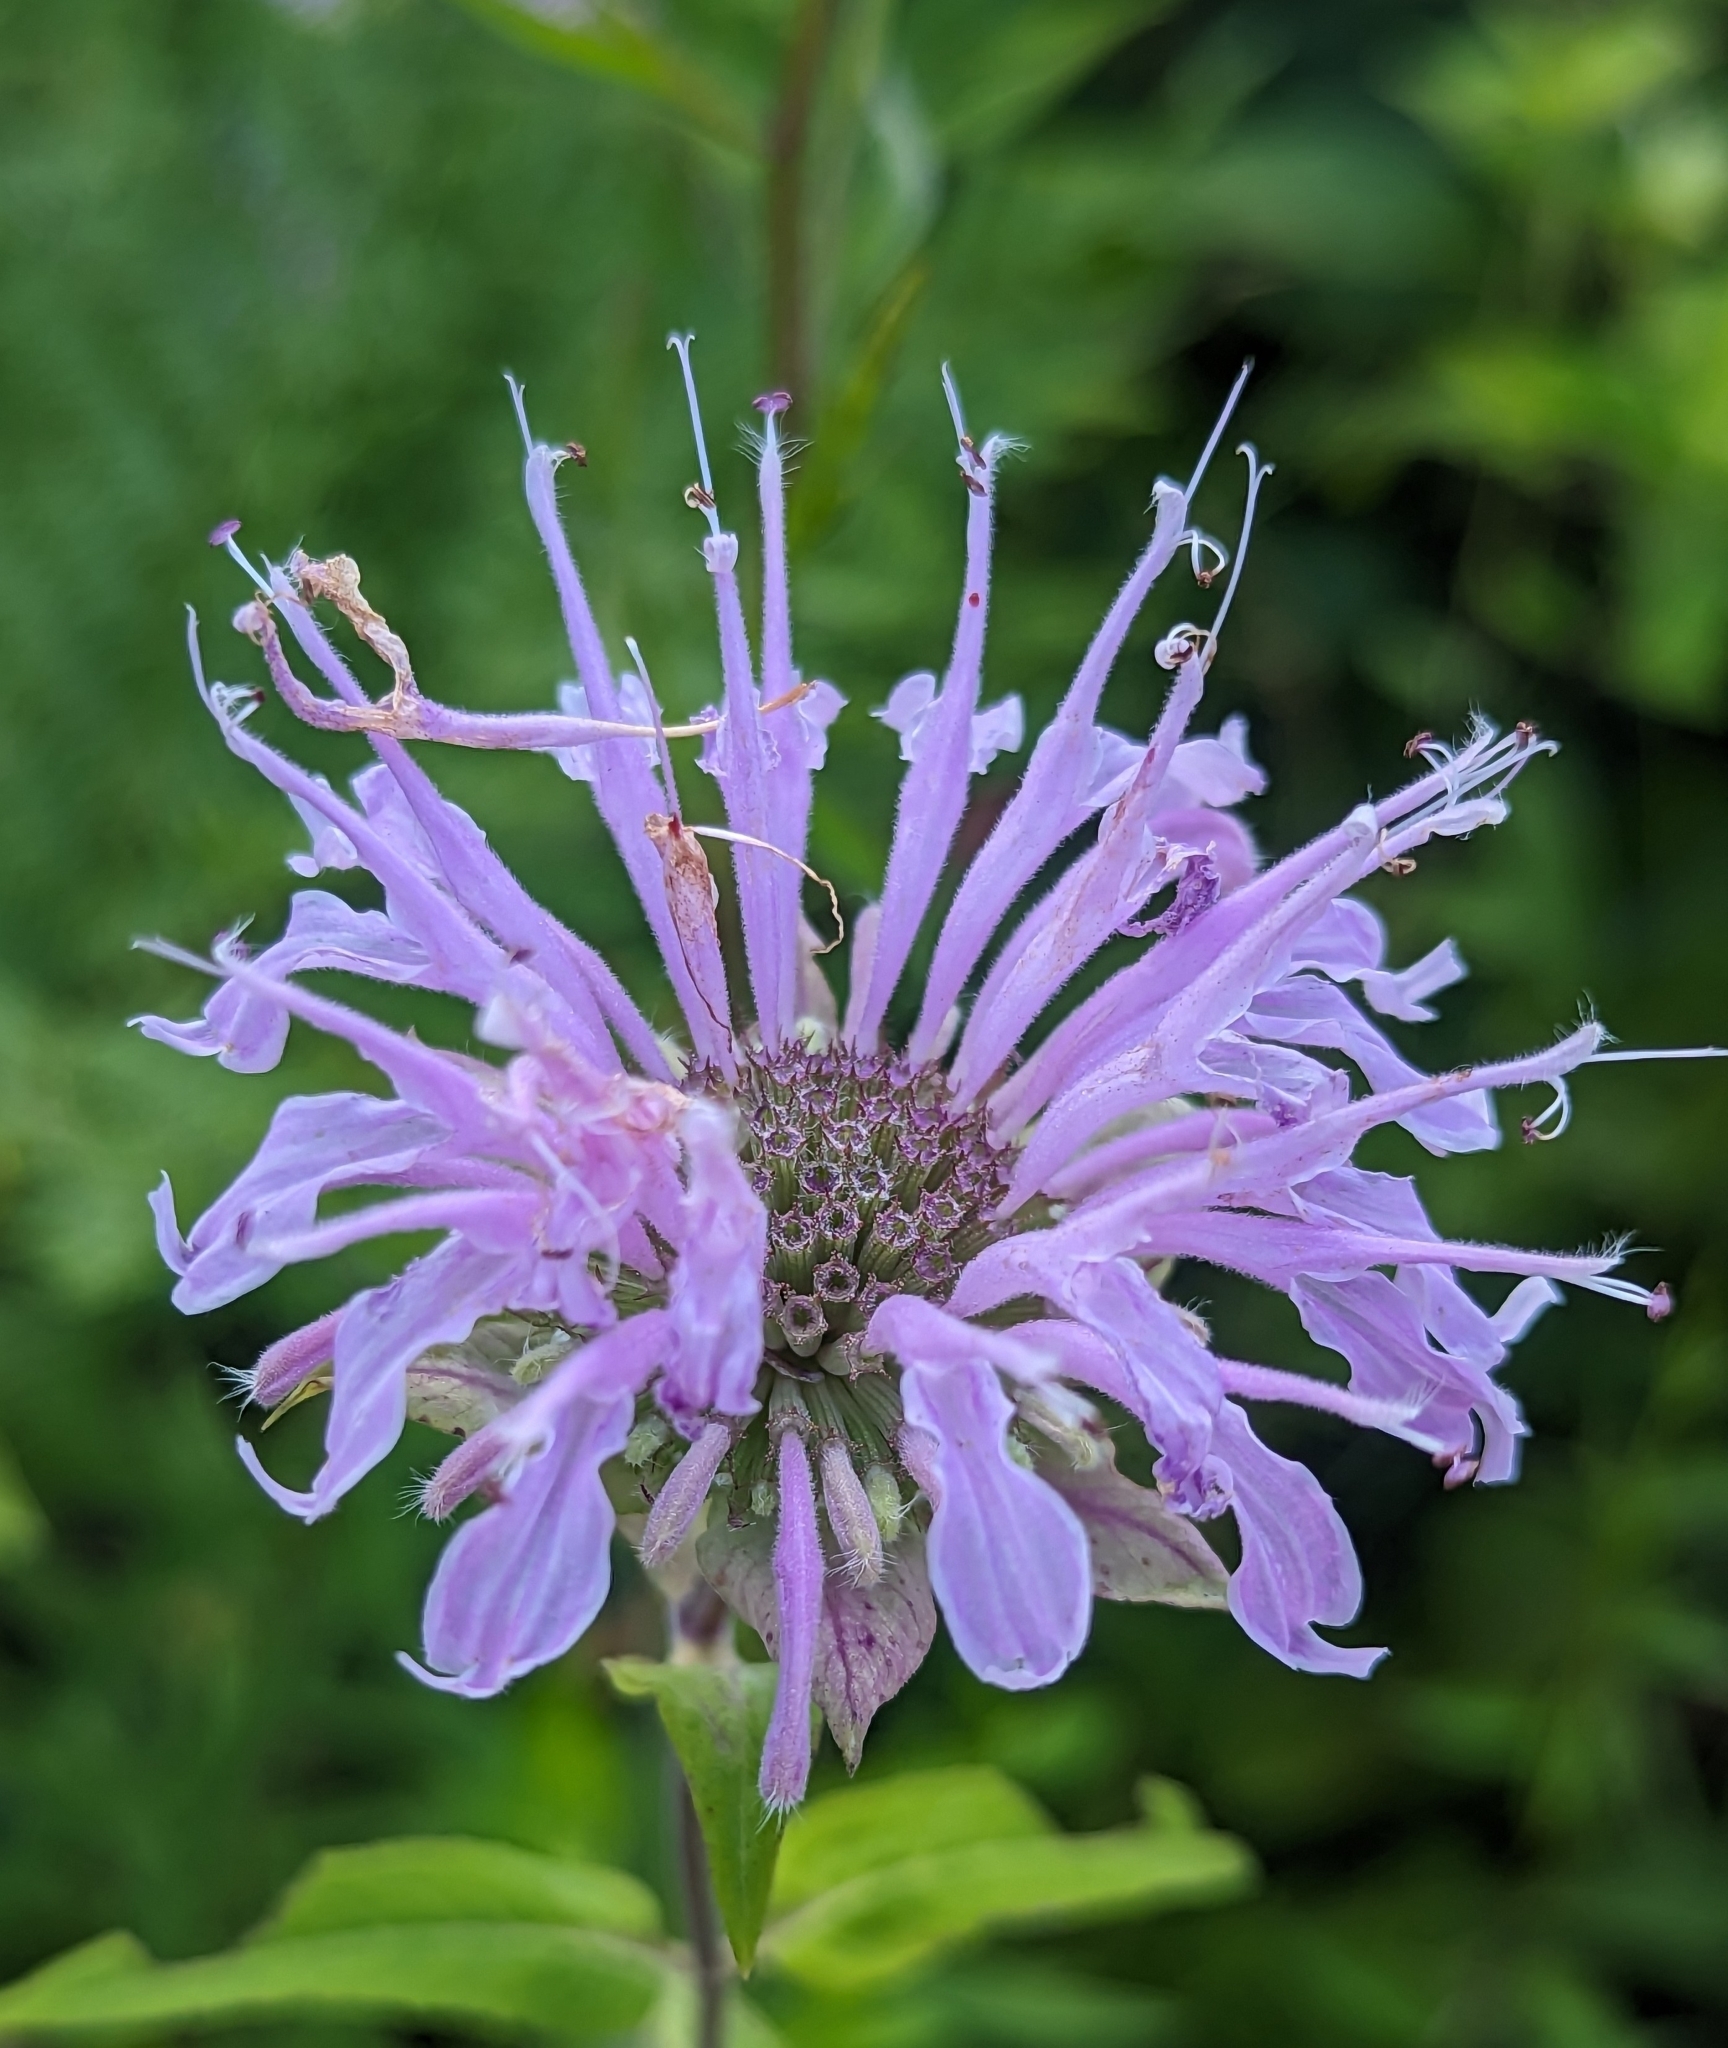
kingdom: Plantae
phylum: Tracheophyta
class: Magnoliopsida
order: Lamiales
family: Lamiaceae
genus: Monarda
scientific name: Monarda fistulosa
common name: Purple beebalm
